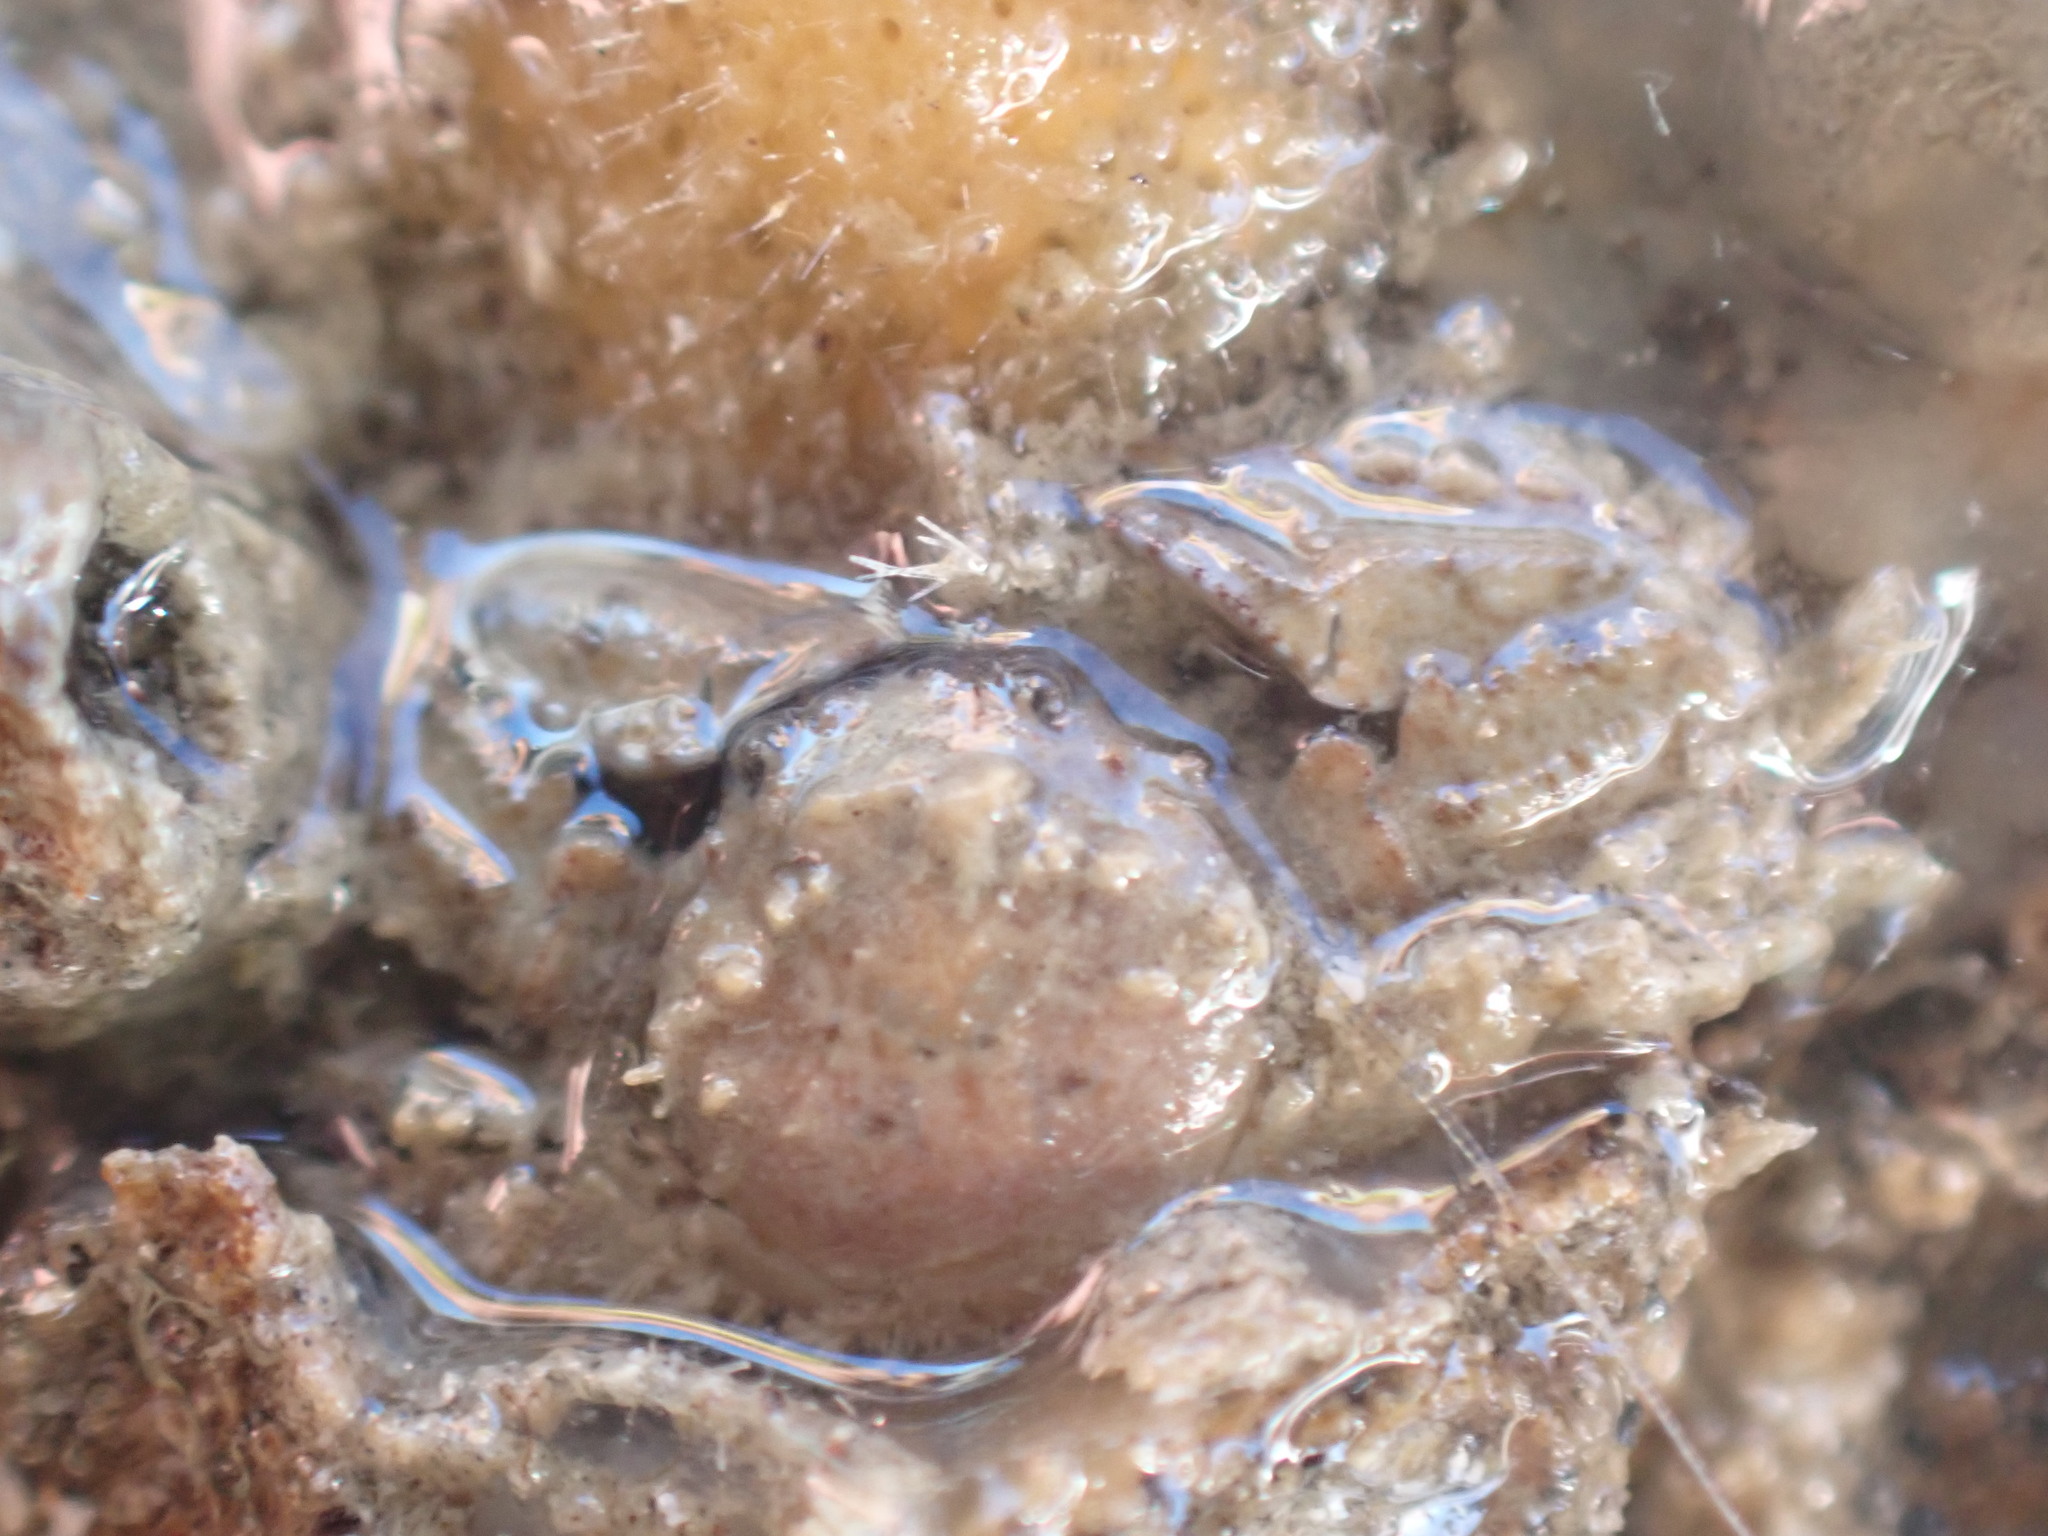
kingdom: Animalia
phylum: Arthropoda
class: Malacostraca
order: Decapoda
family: Porcellanidae
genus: Petrocheles
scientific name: Petrocheles spinosus
